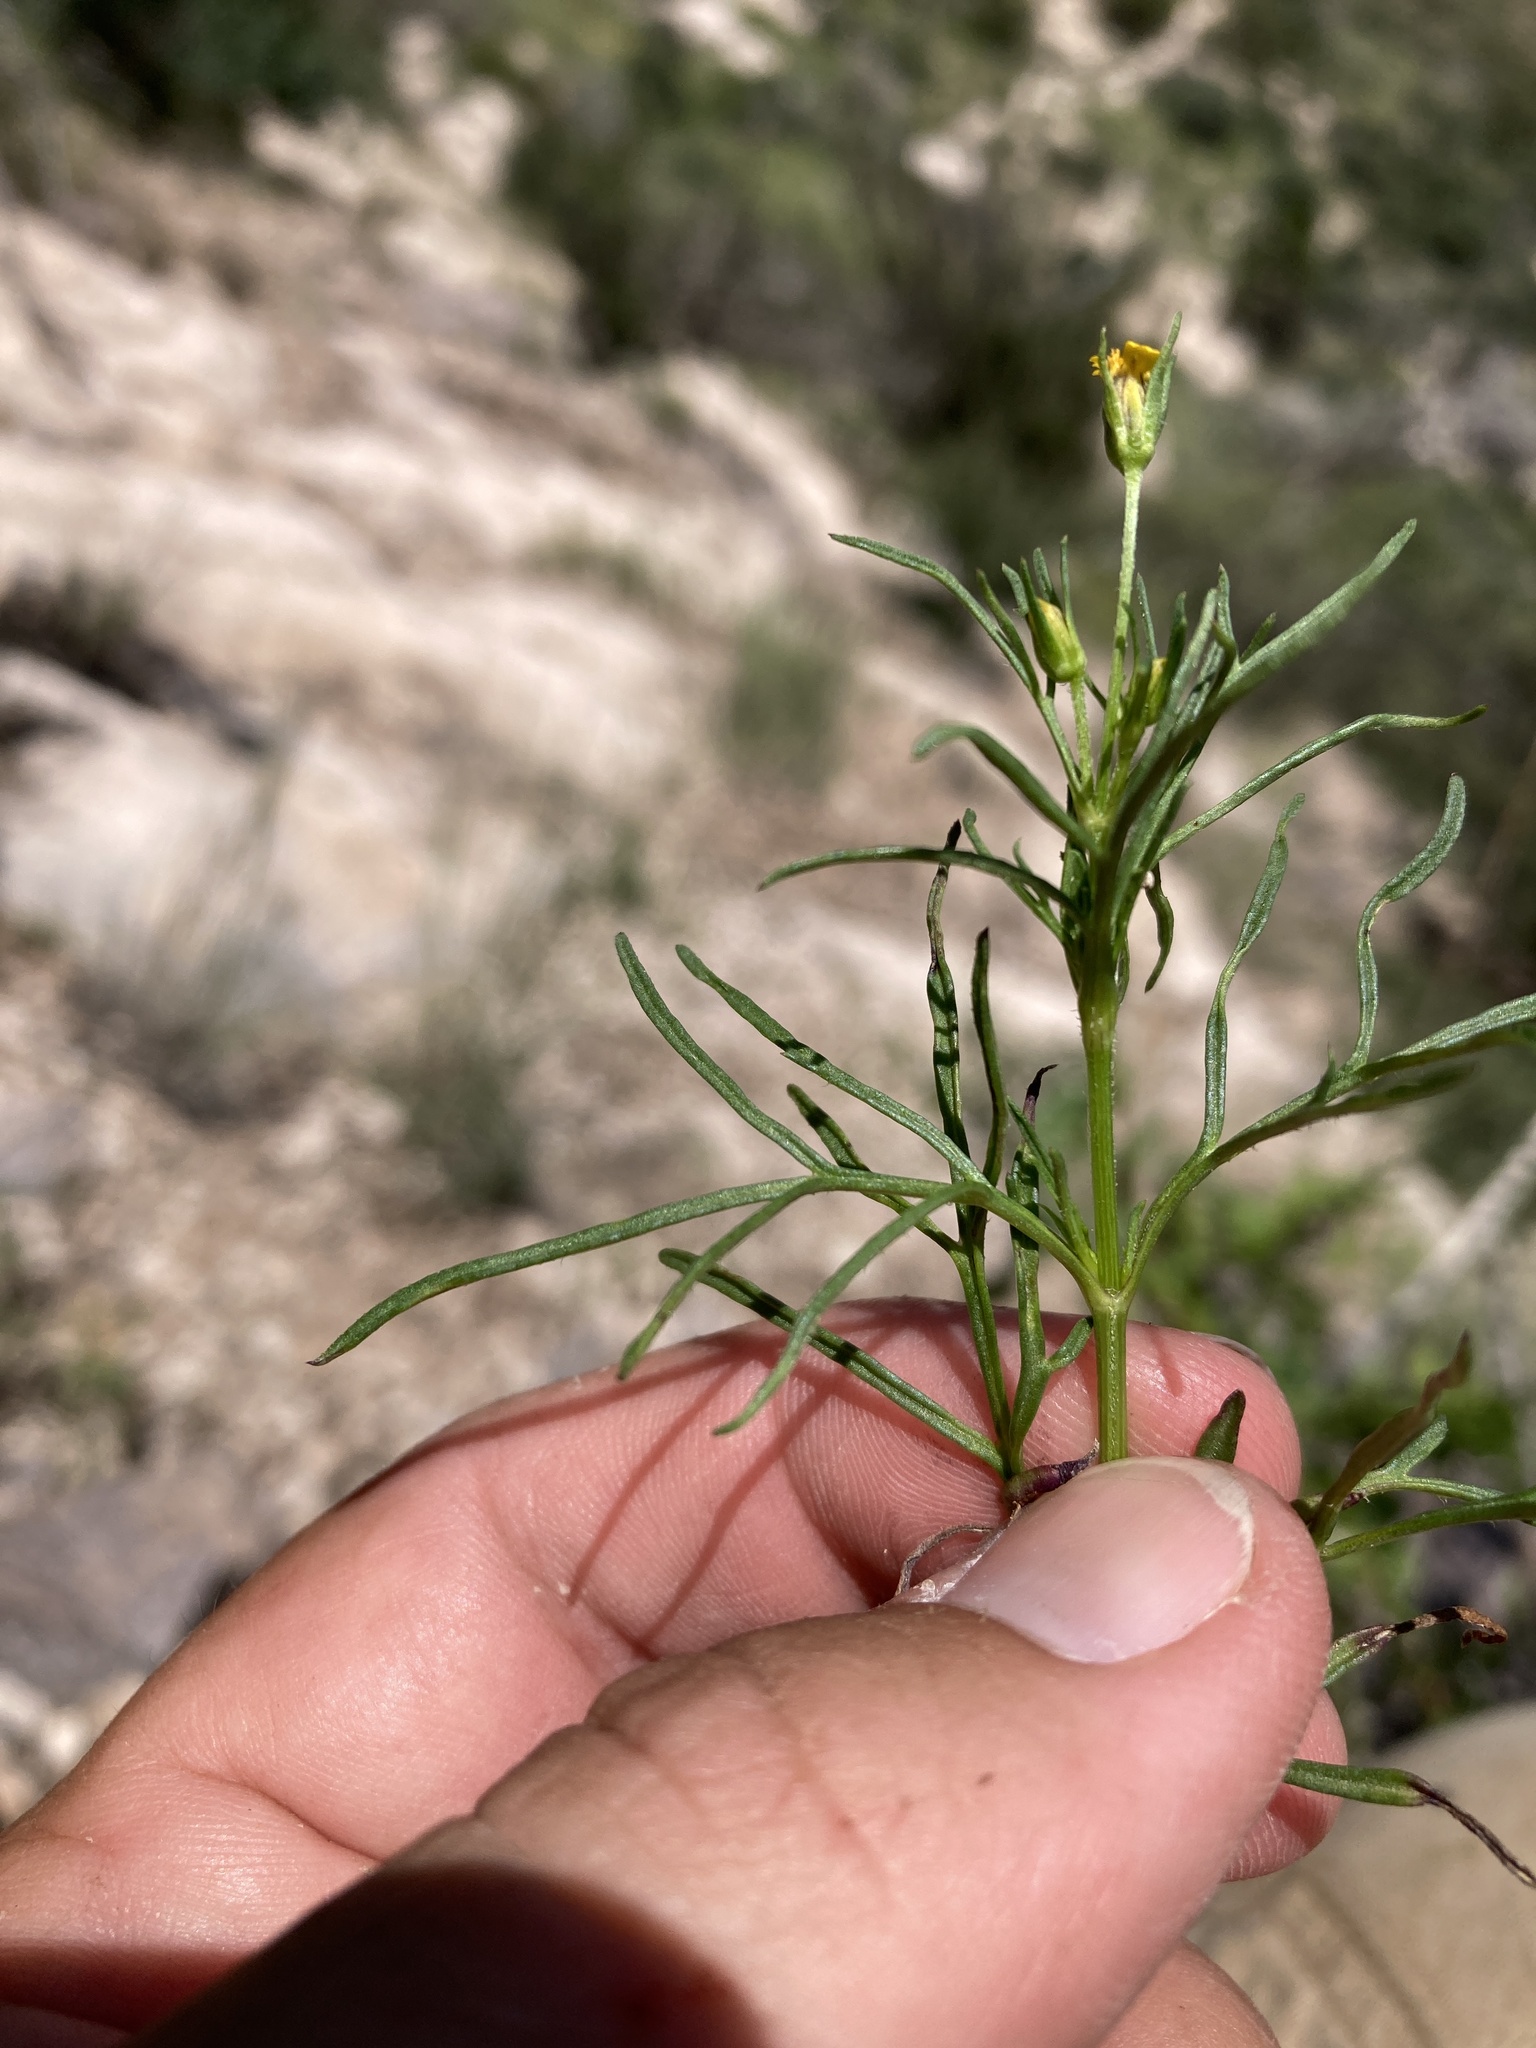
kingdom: Plantae
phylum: Tracheophyta
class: Magnoliopsida
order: Asterales
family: Asteraceae
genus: Heterosperma
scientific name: Heterosperma pinnatum
